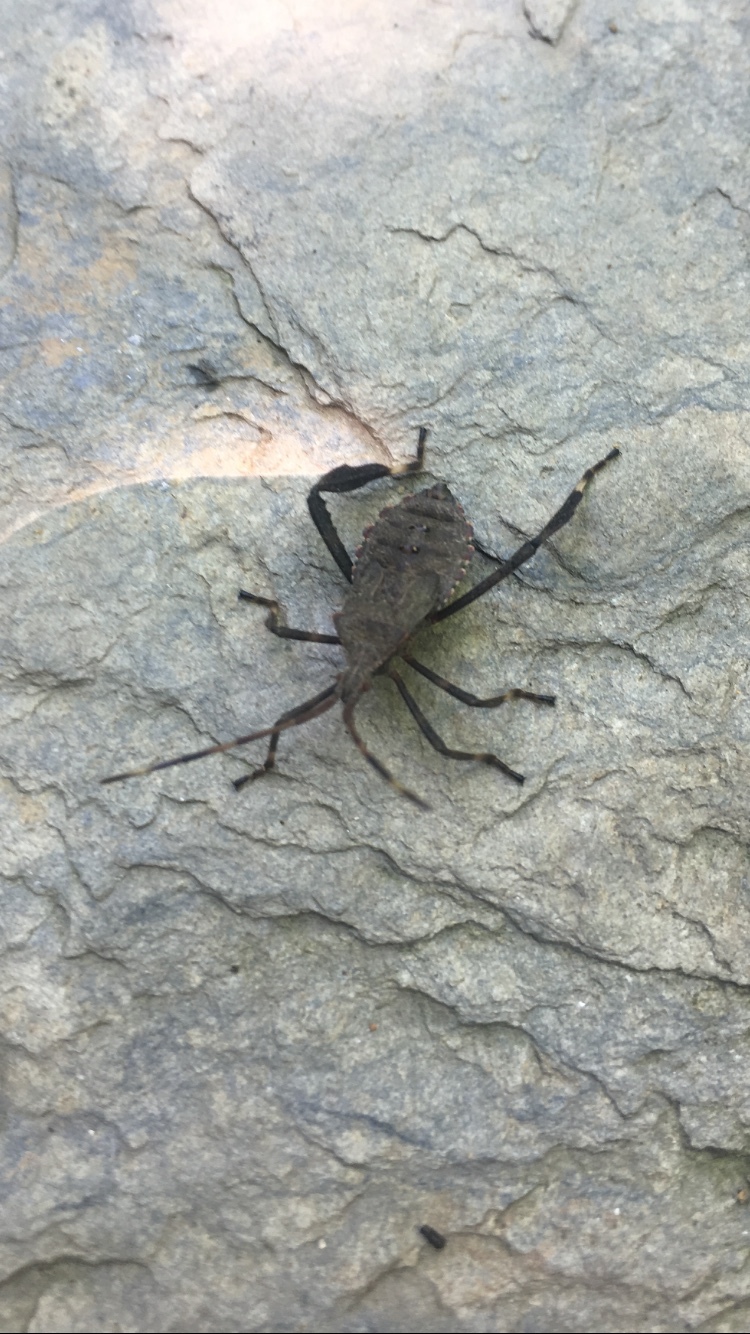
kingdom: Animalia
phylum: Arthropoda
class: Insecta
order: Hemiptera
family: Coreidae
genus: Acanthocephala
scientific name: Acanthocephala terminalis
